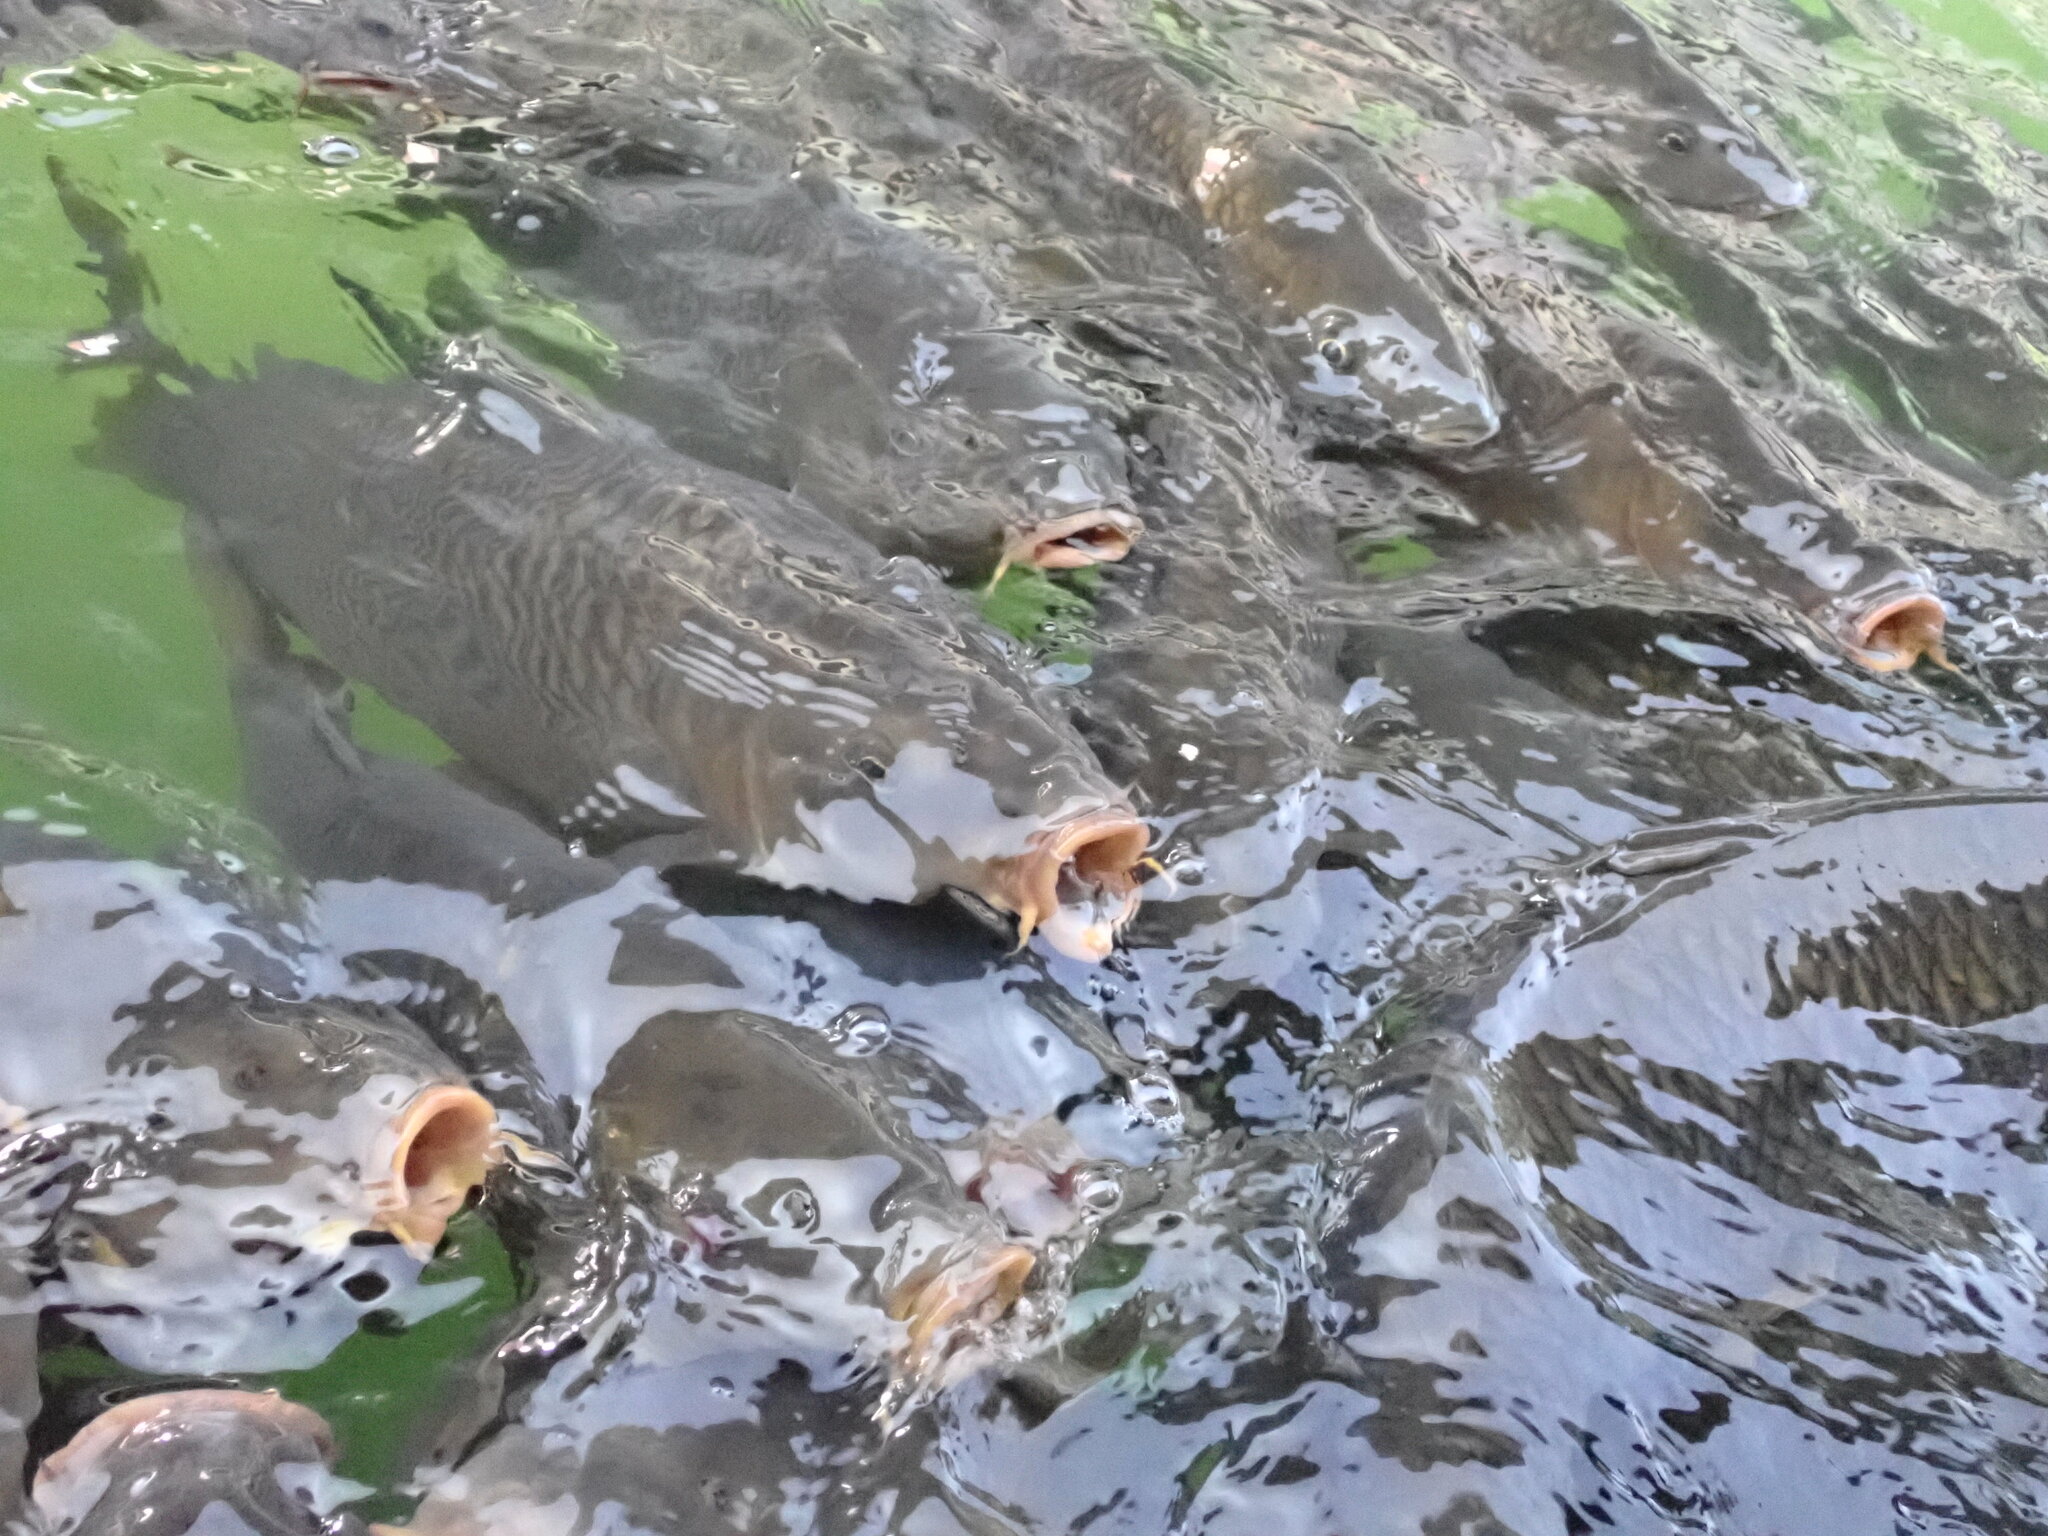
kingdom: Animalia
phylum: Chordata
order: Cypriniformes
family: Cyprinidae
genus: Cyprinus
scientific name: Cyprinus carpio
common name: Common carp
